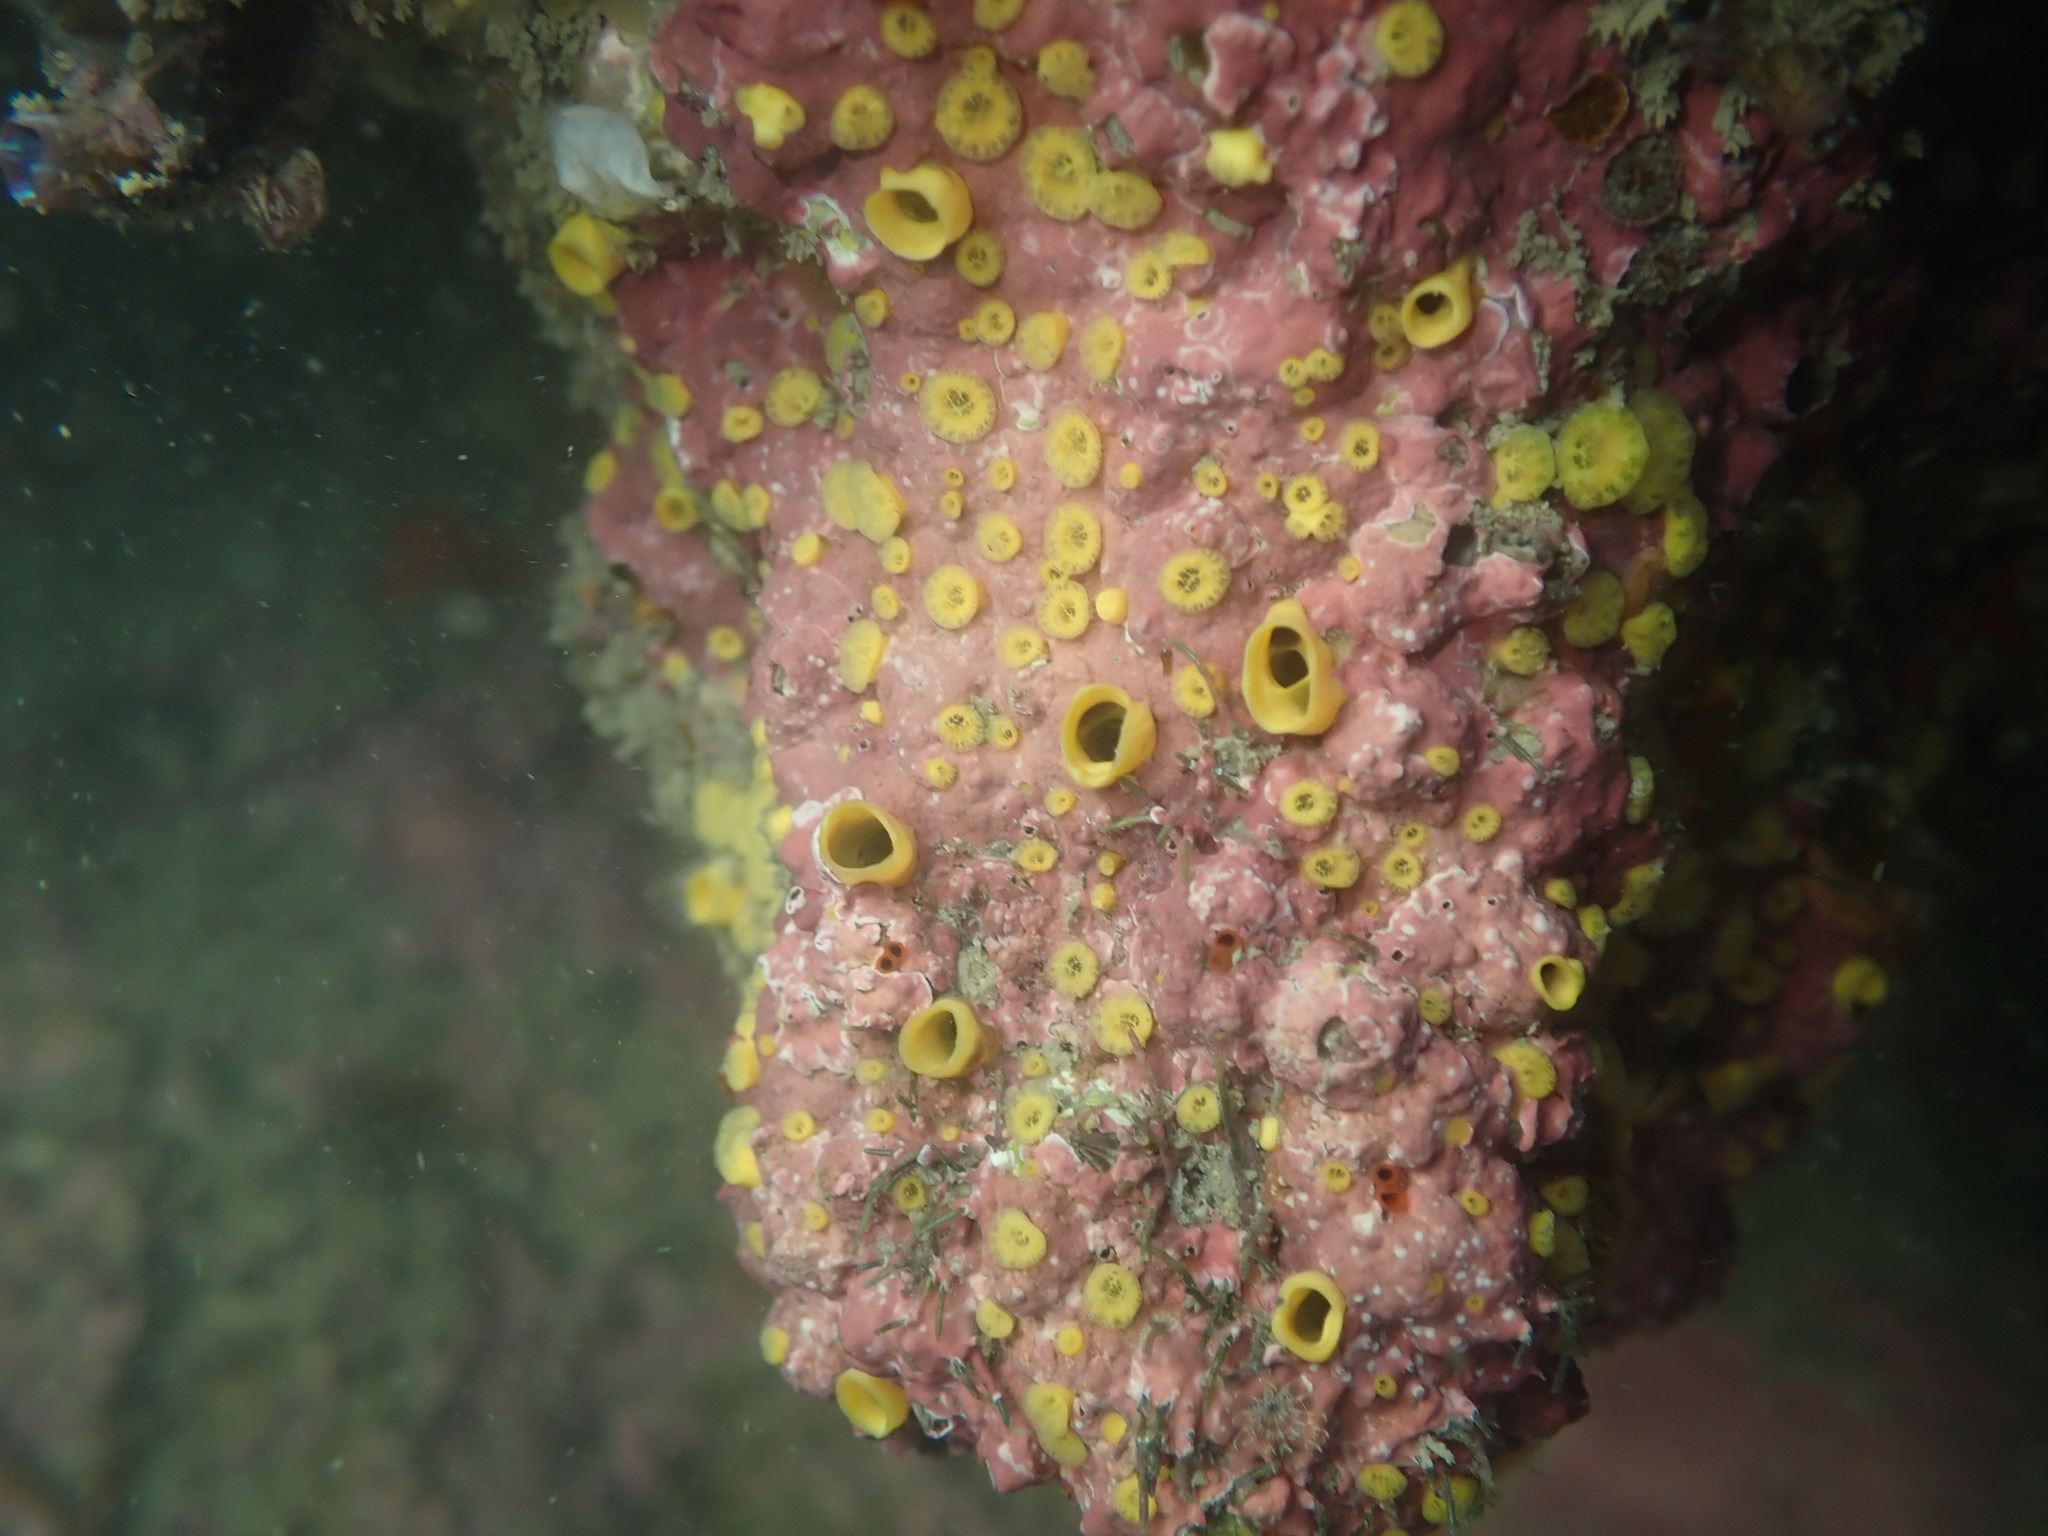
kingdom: Animalia
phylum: Porifera
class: Demospongiae
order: Clionaida
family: Clionaidae
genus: Cliona
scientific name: Cliona celata
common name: Boring sponge
